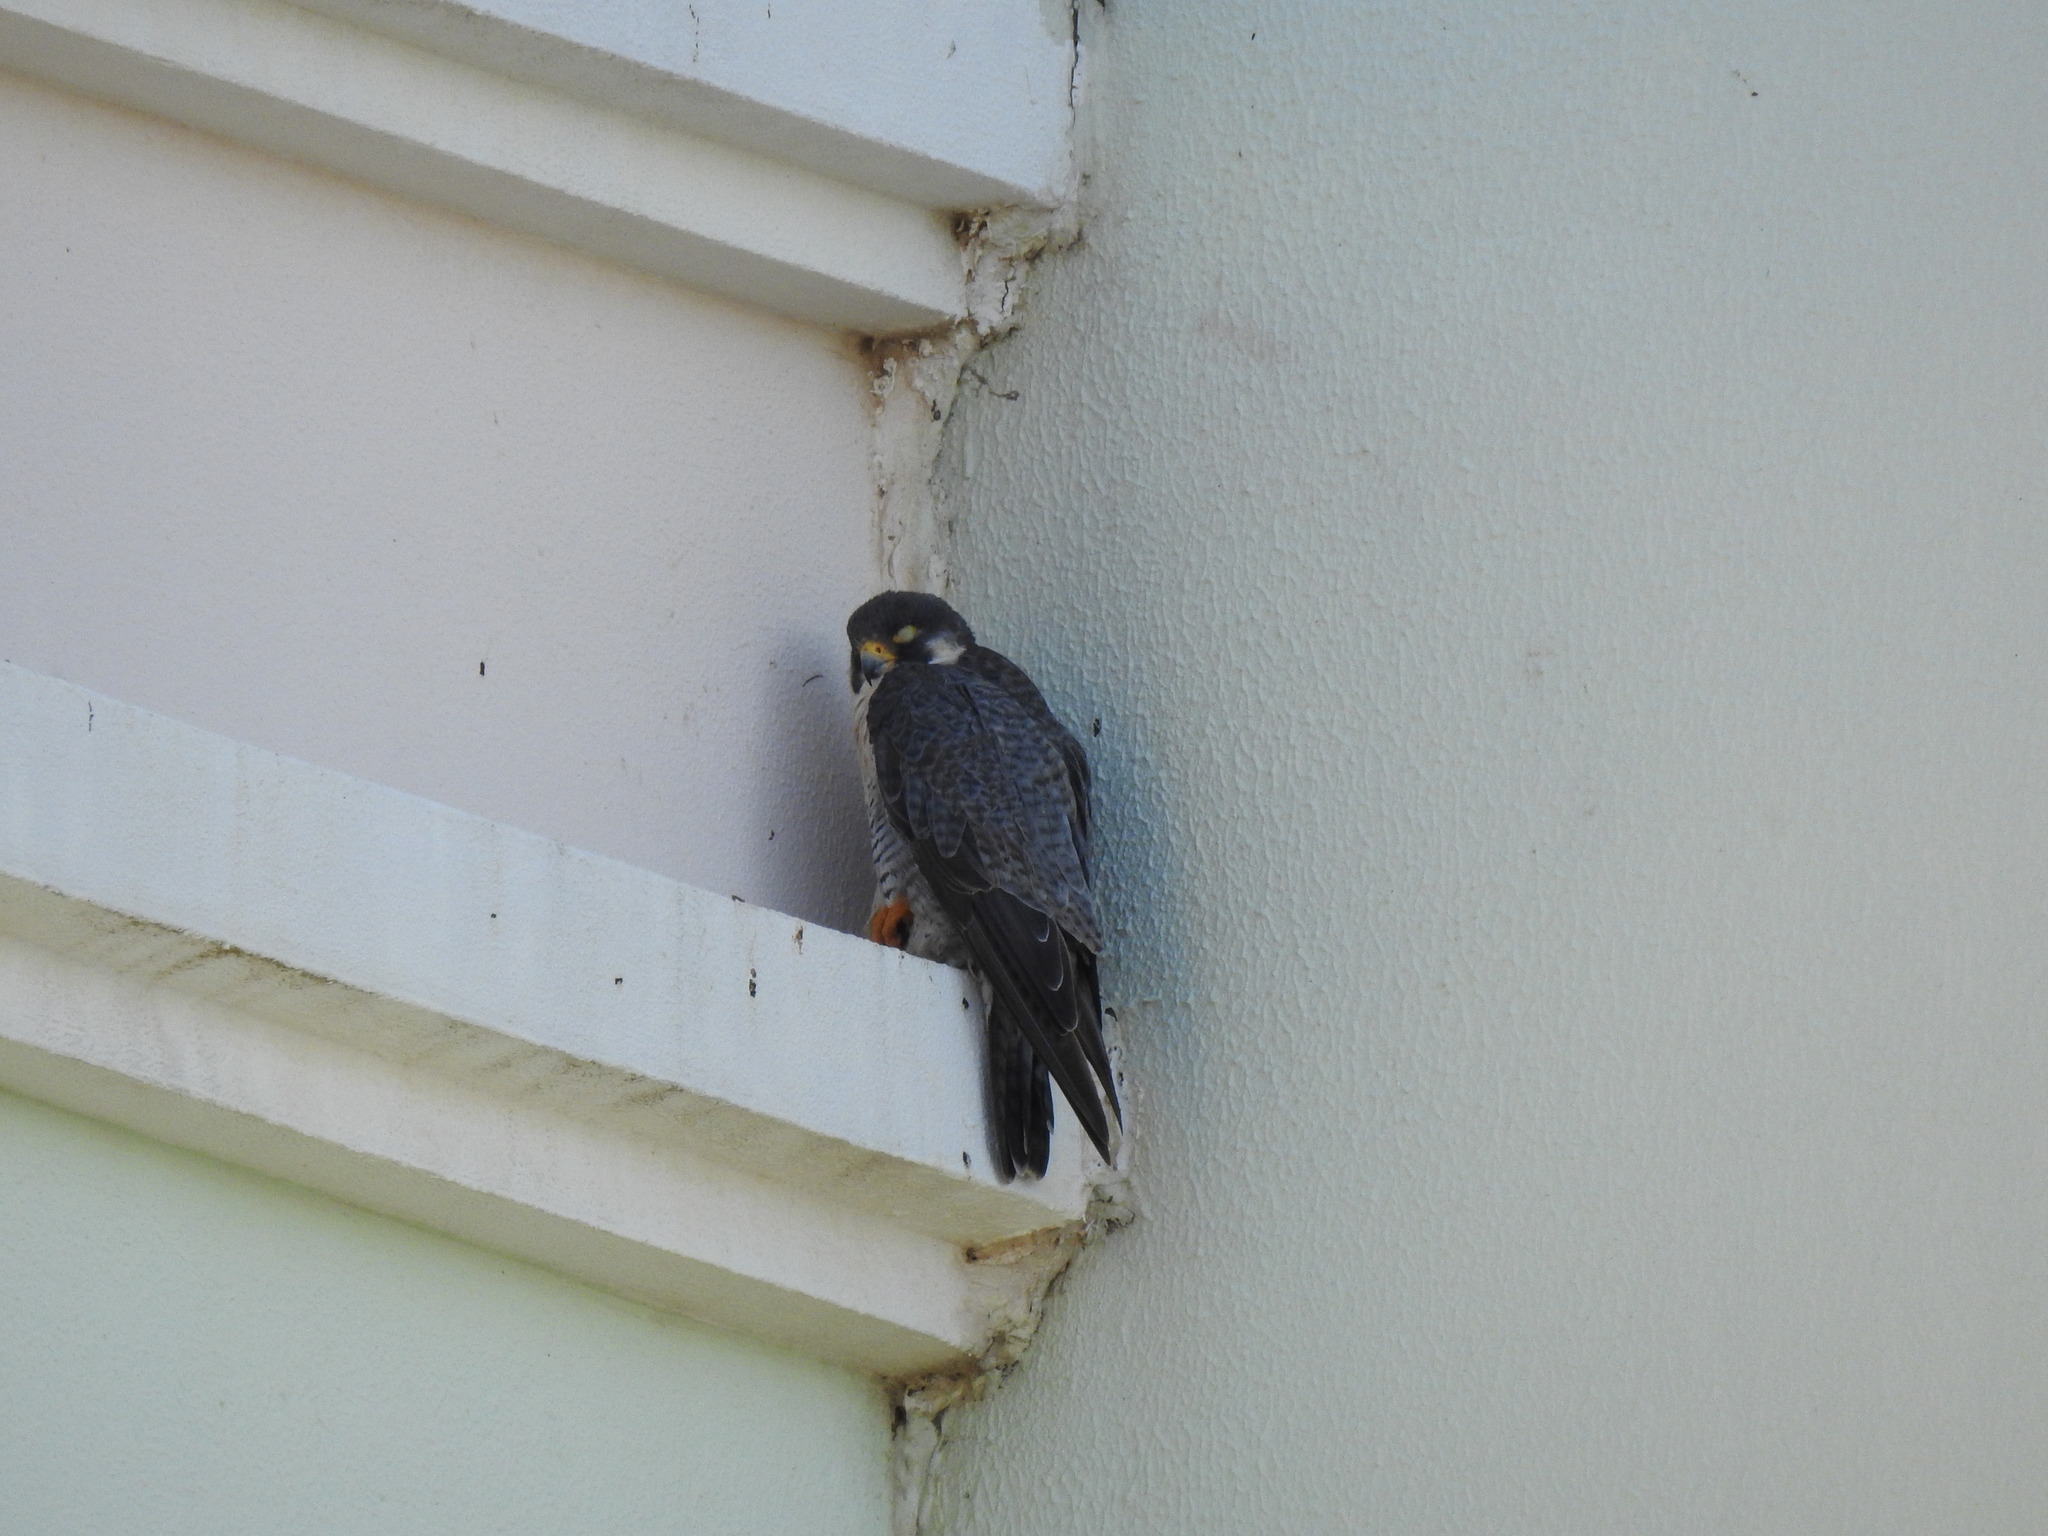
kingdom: Animalia
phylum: Chordata
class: Aves
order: Falconiformes
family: Falconidae
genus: Falco
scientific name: Falco peregrinus
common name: Peregrine falcon
